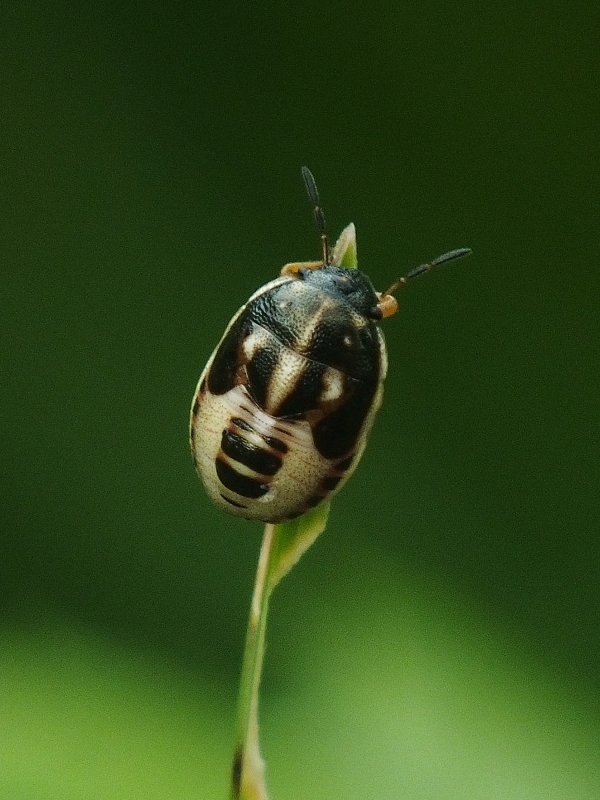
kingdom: Animalia
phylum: Arthropoda
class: Insecta
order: Hemiptera
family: Pentatomidae
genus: Neottiglossa
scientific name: Neottiglossa leporina
